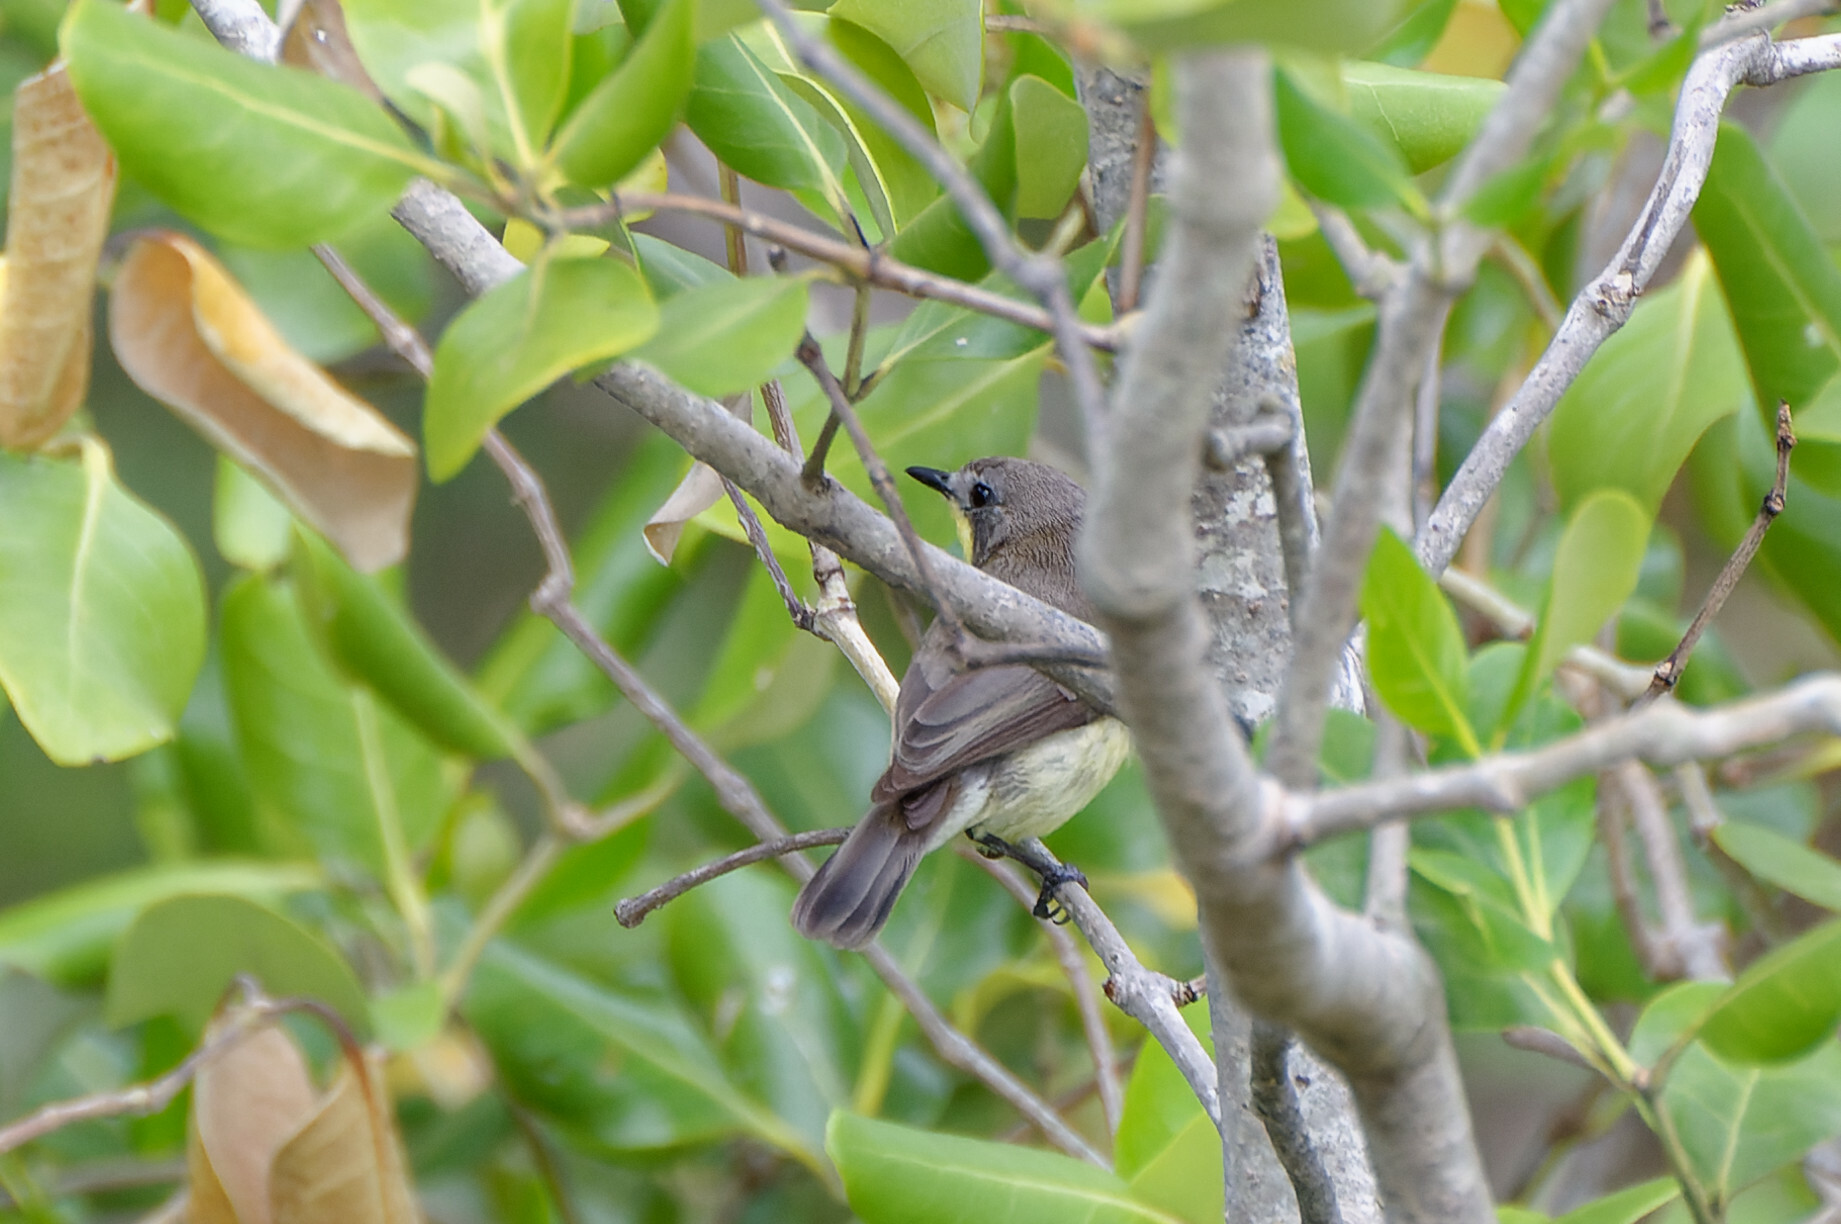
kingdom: Animalia
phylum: Chordata
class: Aves
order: Passeriformes
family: Acanthizidae
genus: Gerygone
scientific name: Gerygone sulphurea
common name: Golden-bellied gerygone
